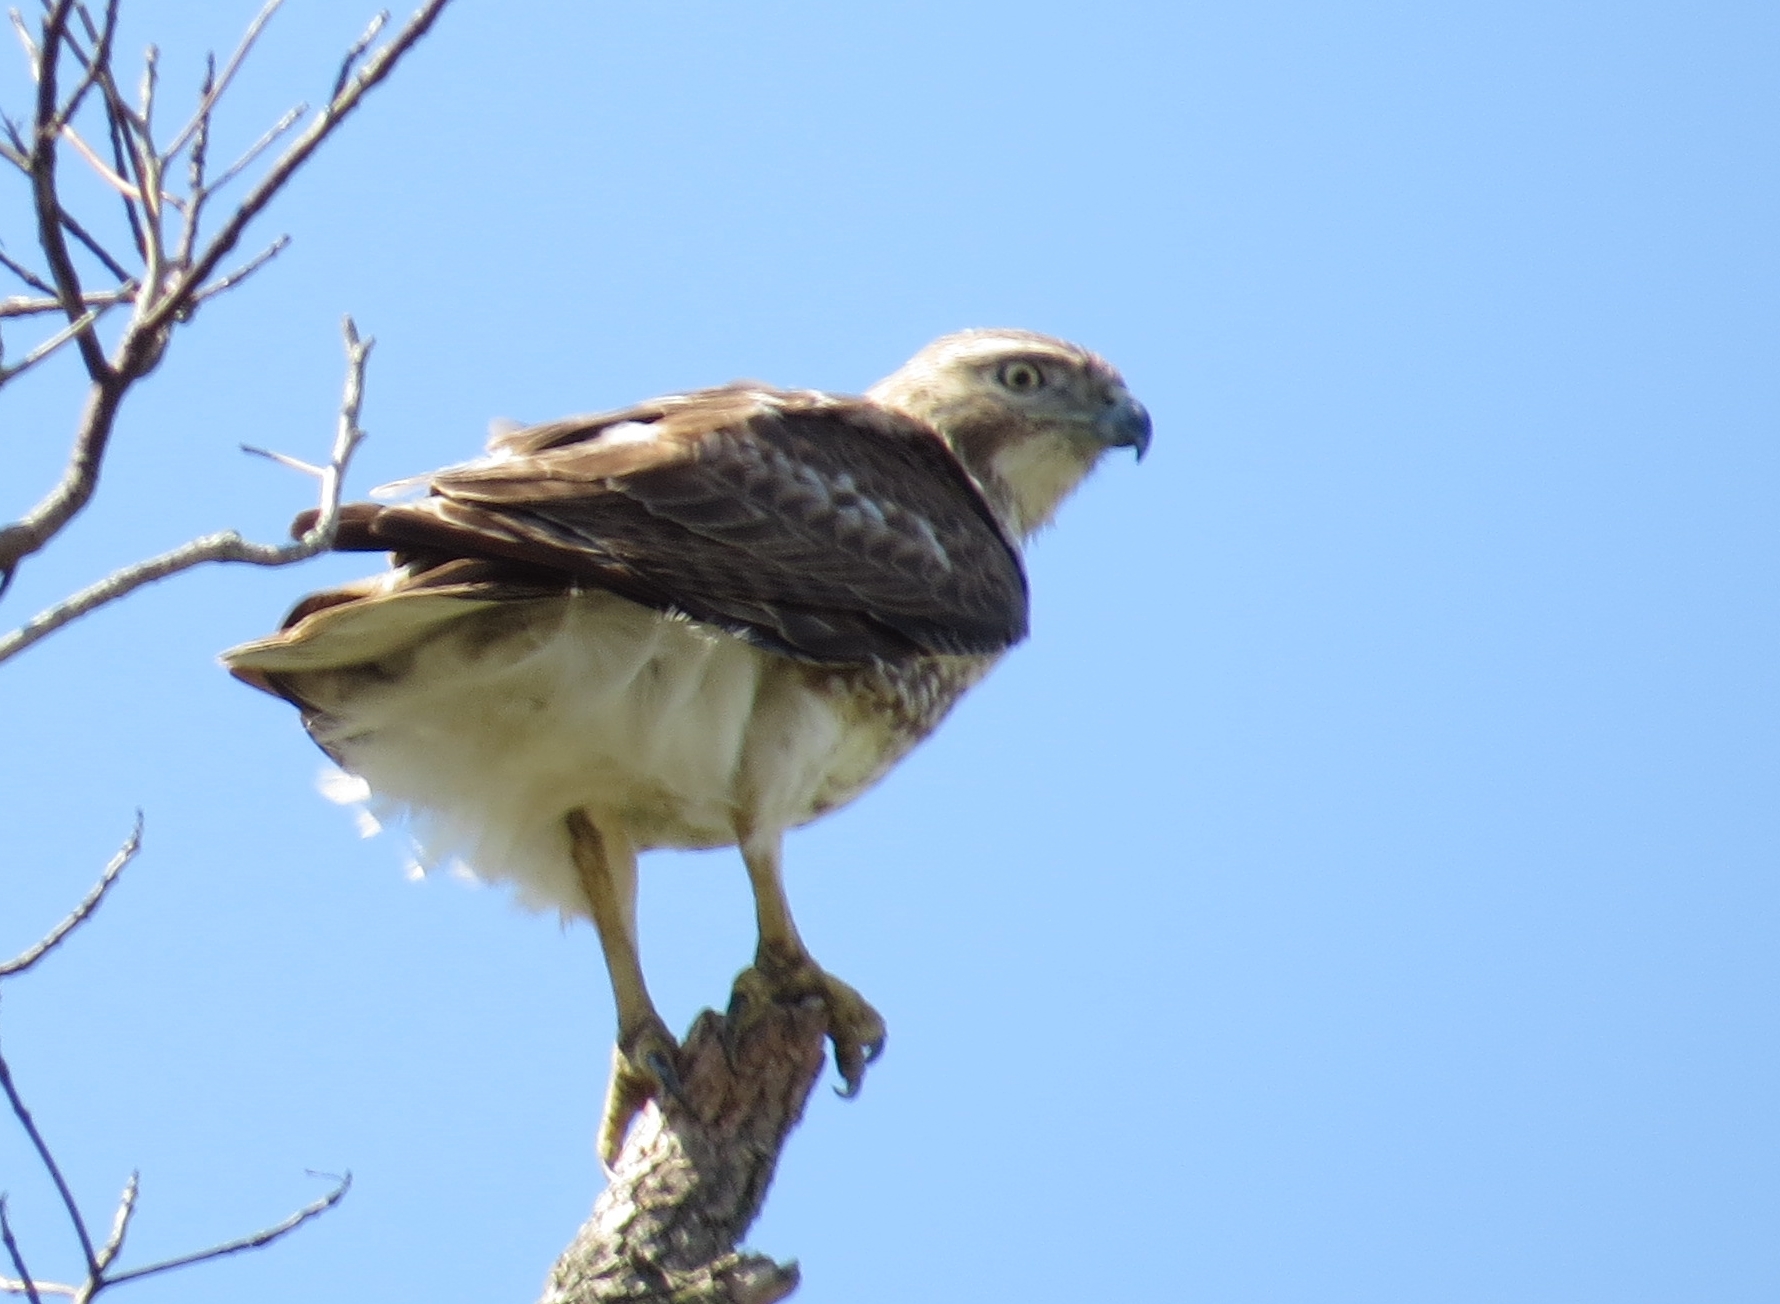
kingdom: Animalia
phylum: Chordata
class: Aves
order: Accipitriformes
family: Accipitridae
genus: Buteo
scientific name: Buteo jamaicensis
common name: Red-tailed hawk
